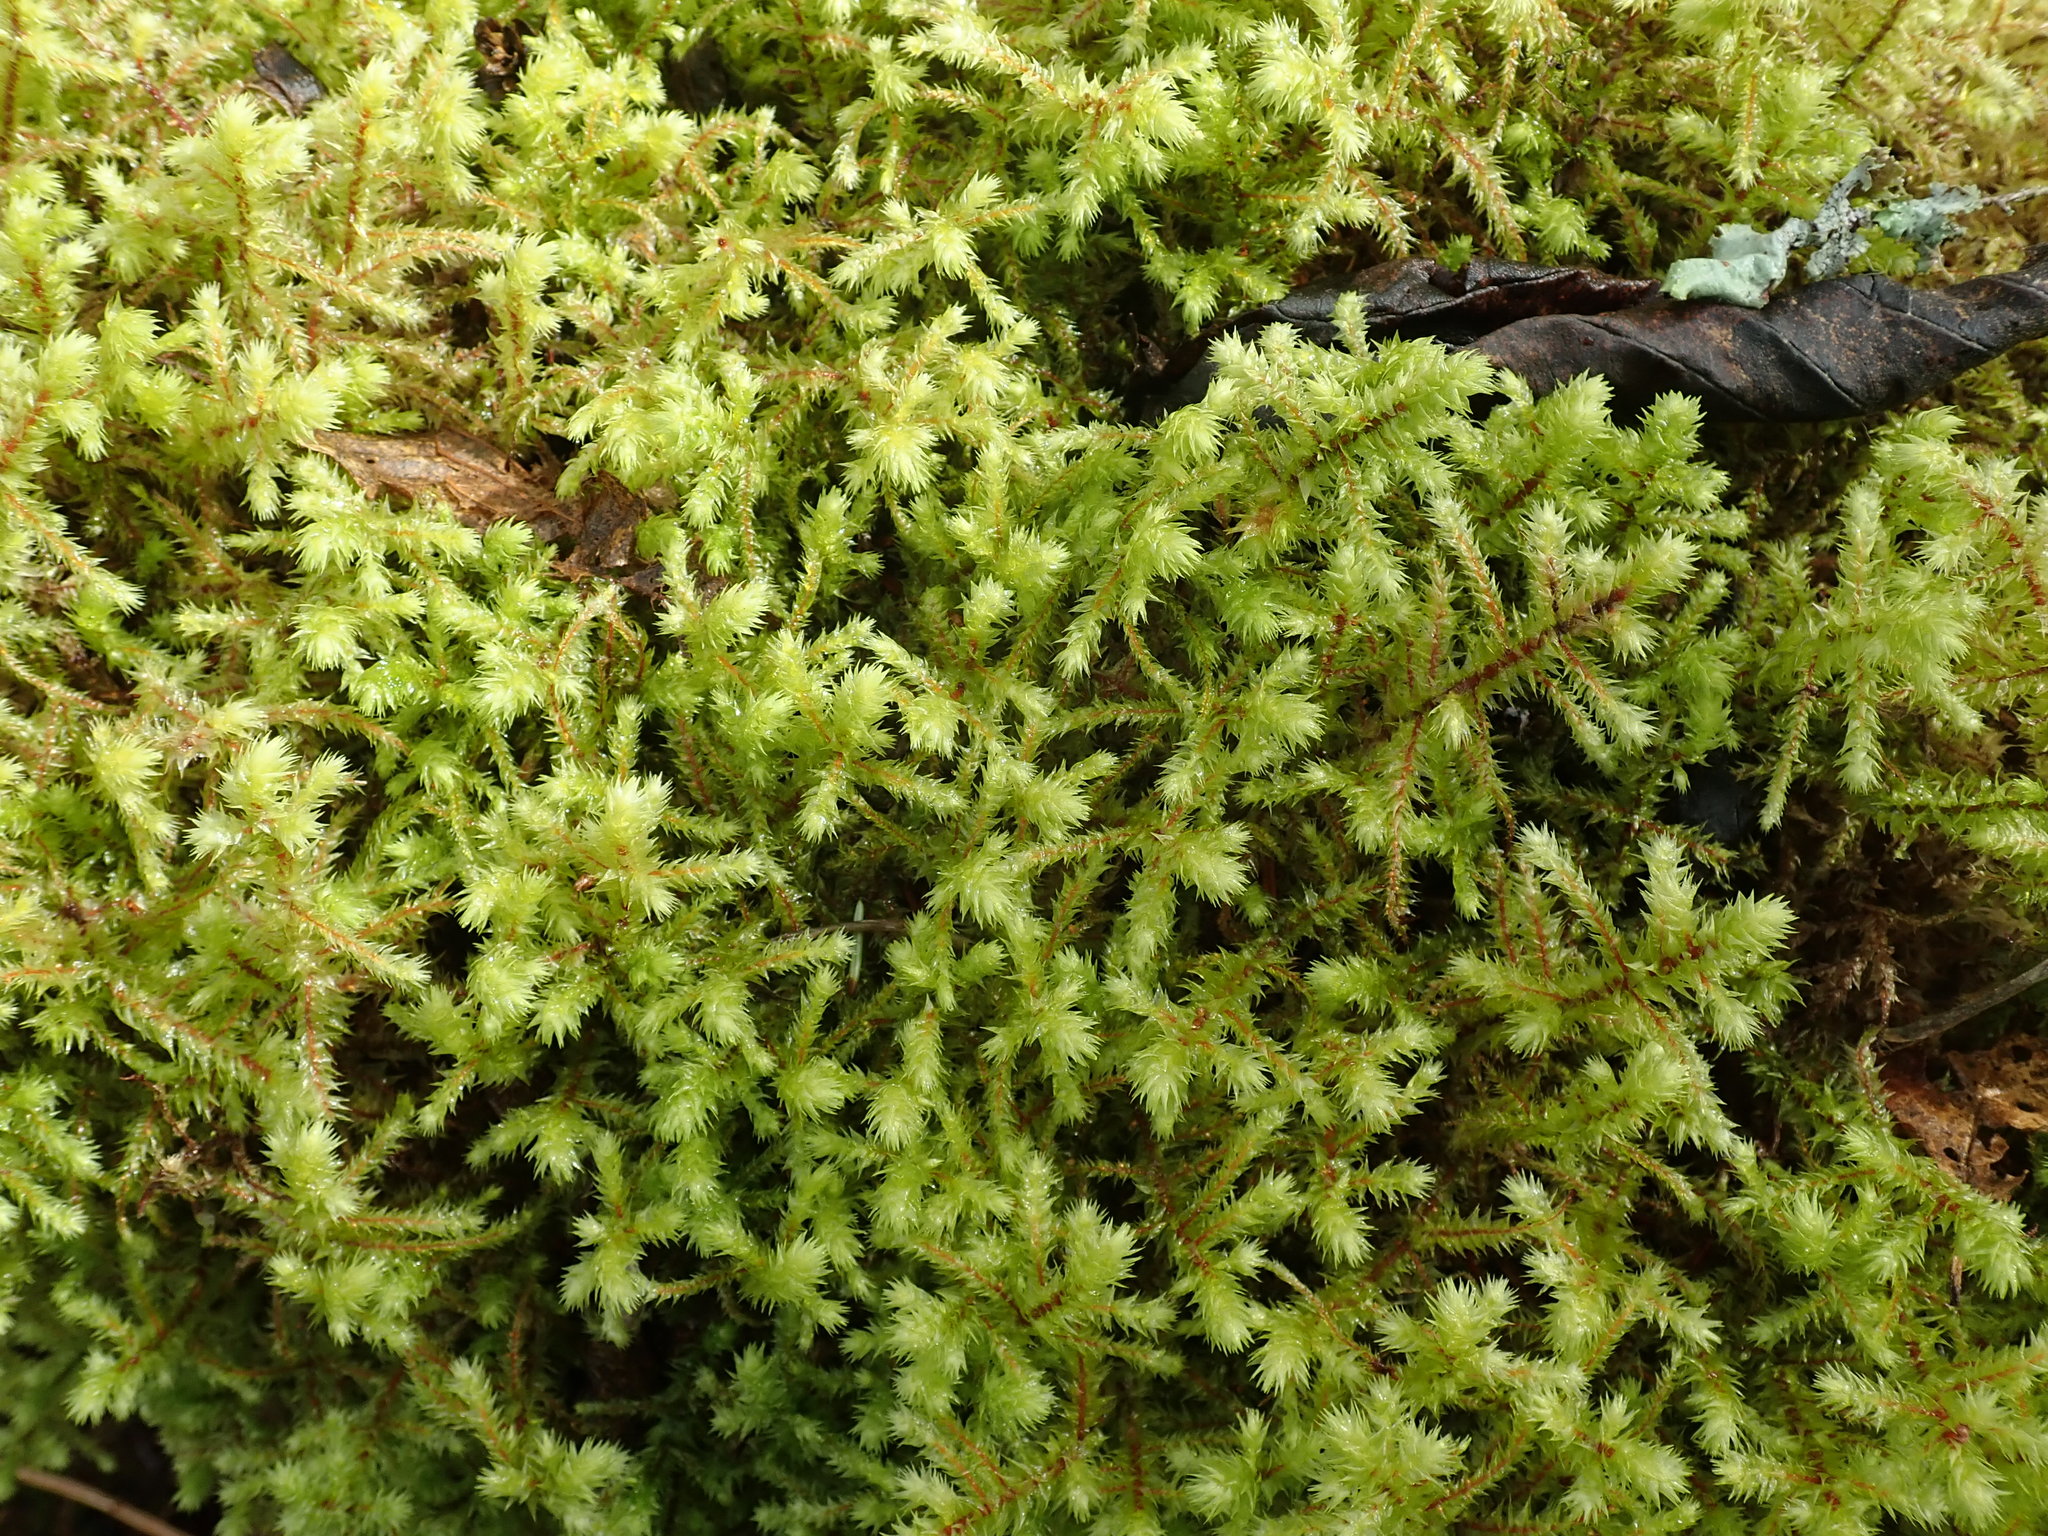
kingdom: Plantae
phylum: Bryophyta
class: Bryopsida
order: Hypnales
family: Hylocomiaceae
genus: Hylocomiadelphus
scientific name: Hylocomiadelphus triquetrus
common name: Rough goose neck moss
